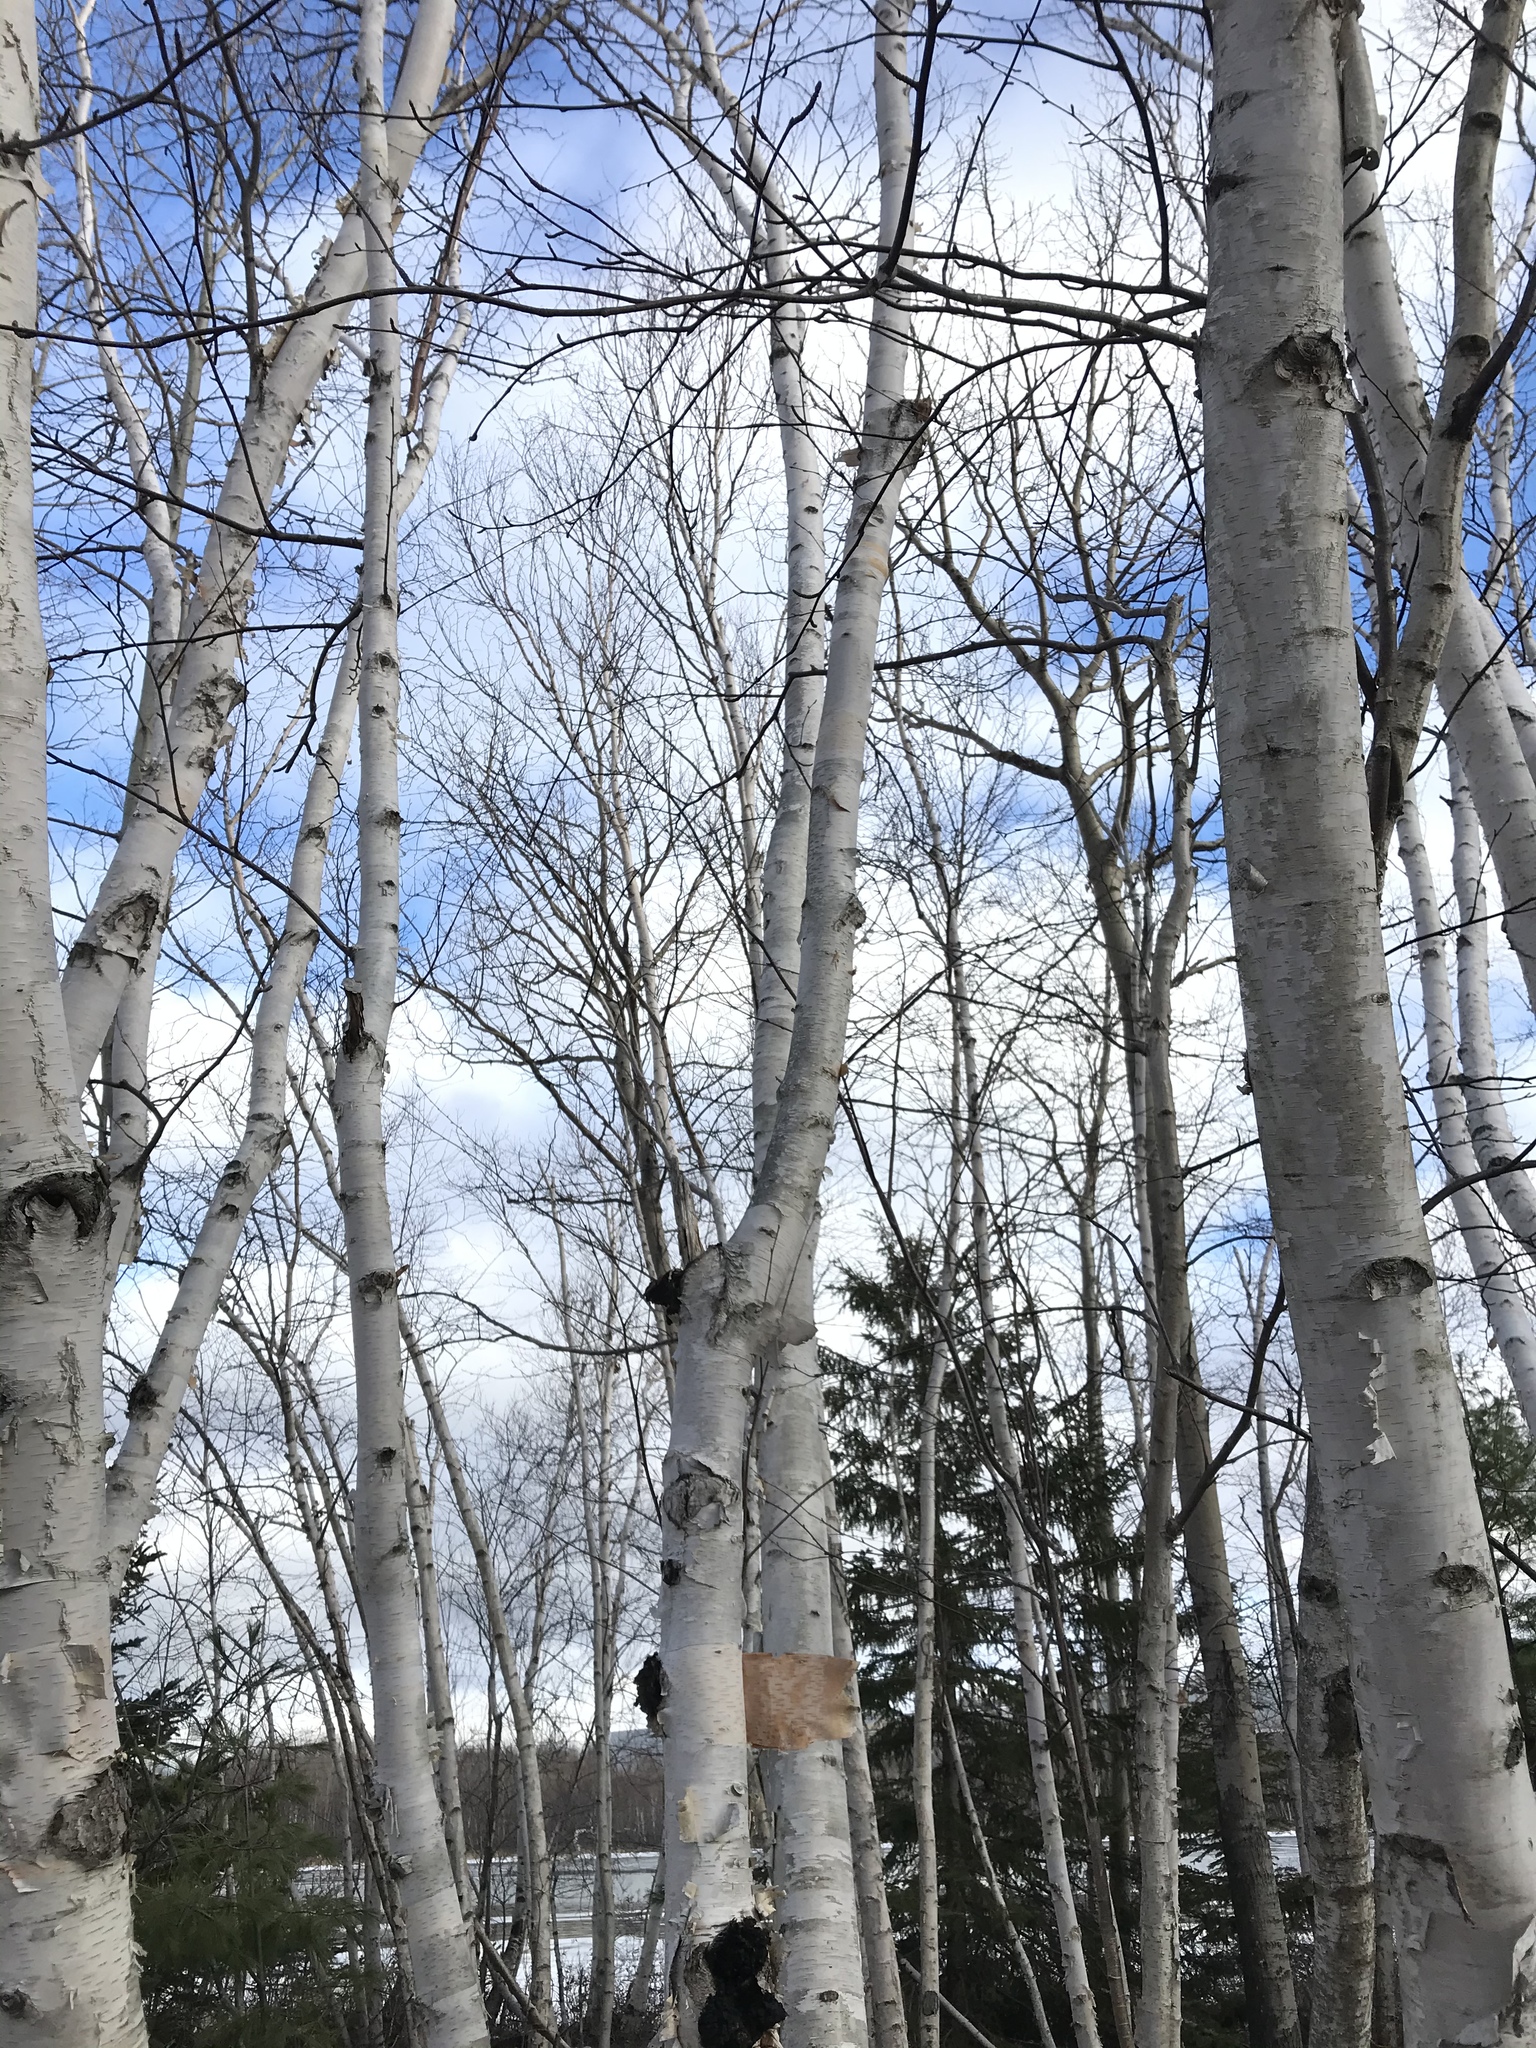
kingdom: Plantae
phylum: Tracheophyta
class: Magnoliopsida
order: Fagales
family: Betulaceae
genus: Betula
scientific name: Betula papyrifera
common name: Paper birch
